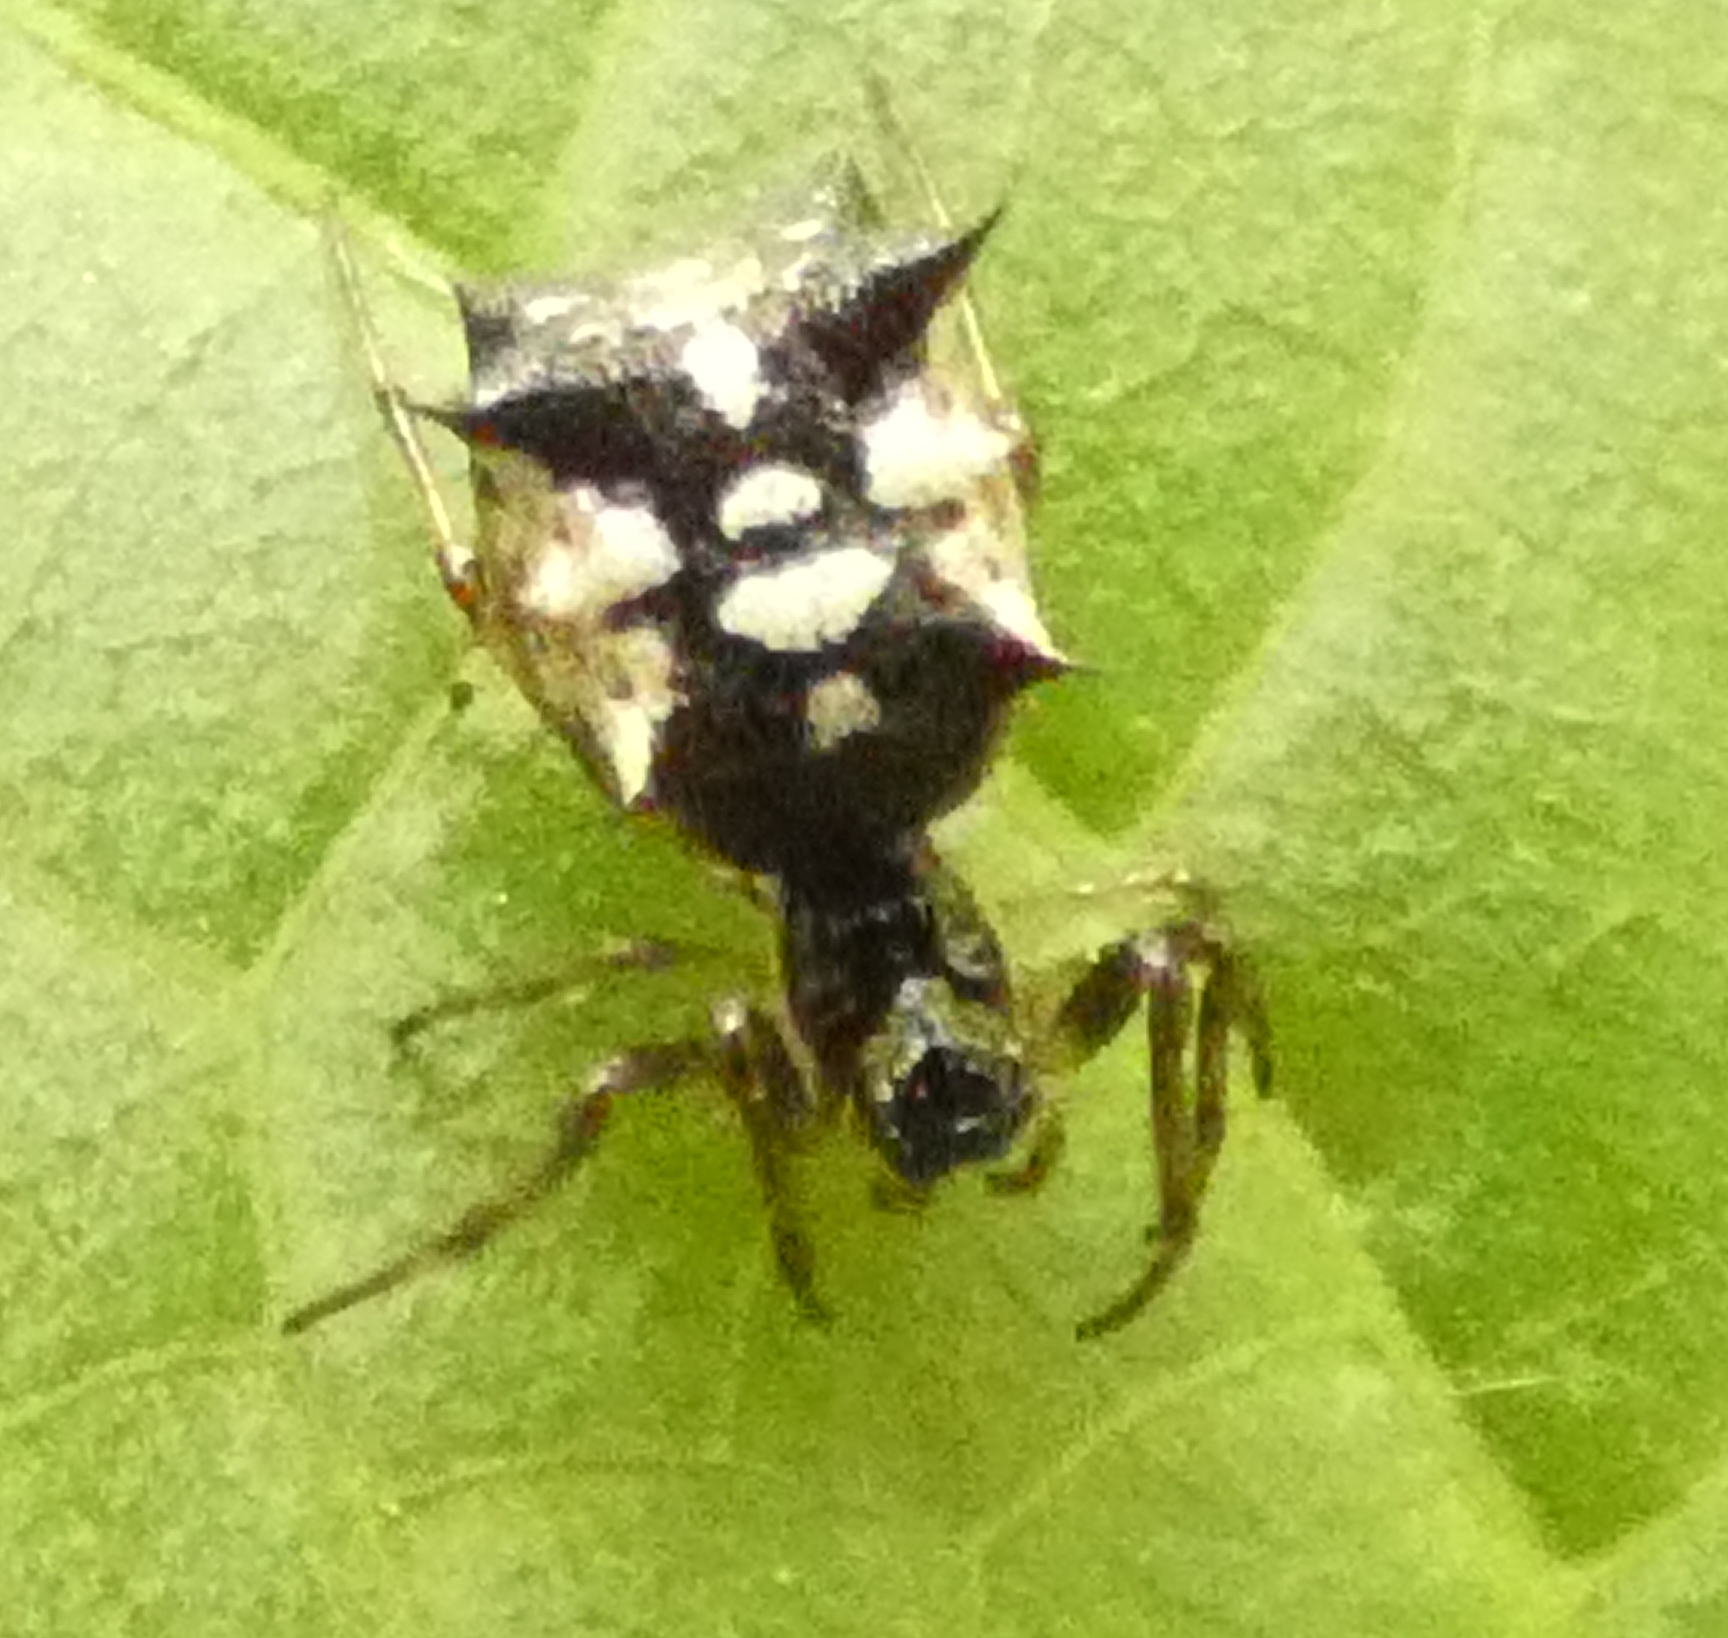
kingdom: Animalia
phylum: Arthropoda
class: Arachnida
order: Araneae
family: Araneidae
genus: Micrathena
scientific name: Micrathena picta
